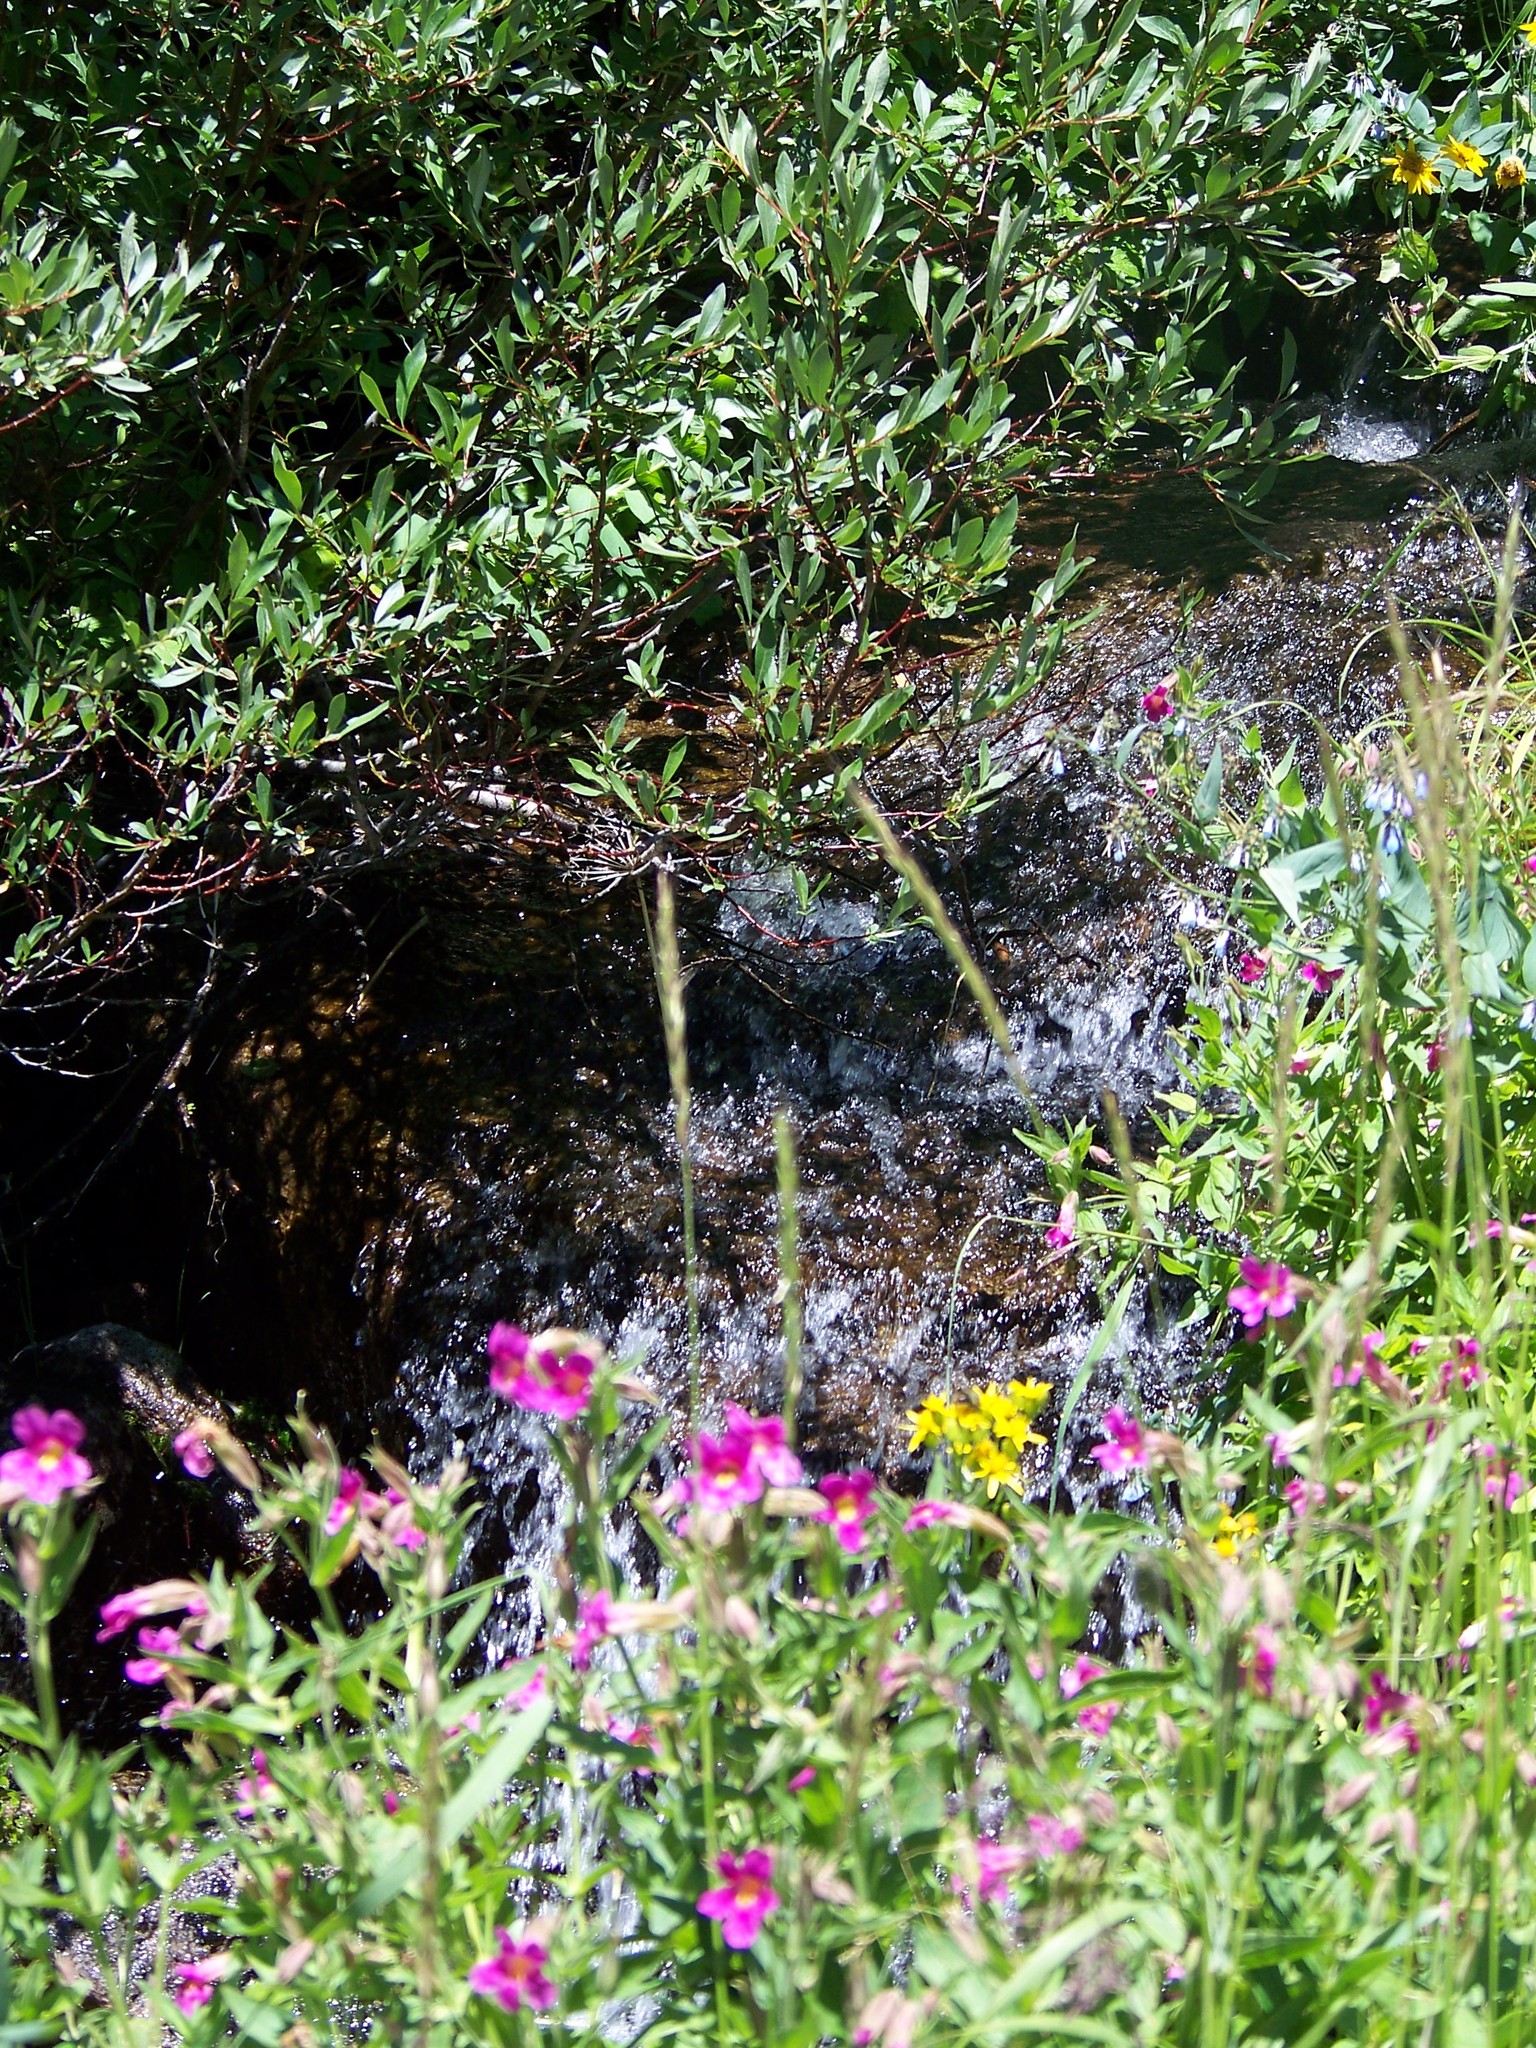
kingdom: Plantae
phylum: Tracheophyta
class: Magnoliopsida
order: Lamiales
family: Phrymaceae
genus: Erythranthe
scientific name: Erythranthe lewisii
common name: Lewis's monkey-flower
